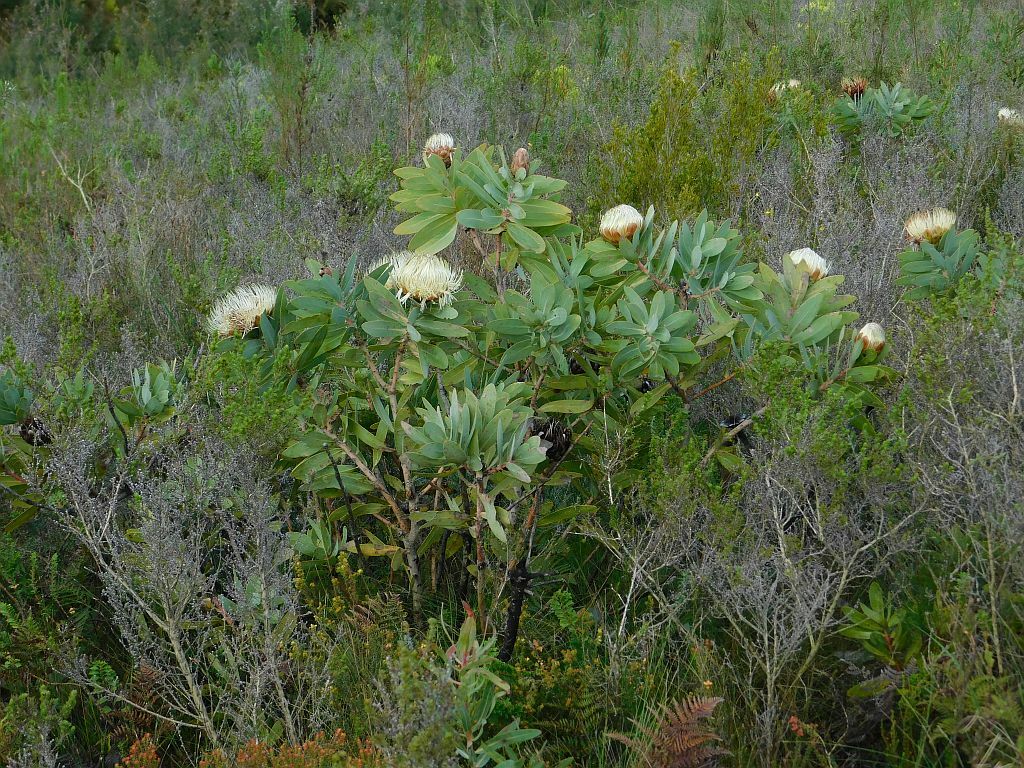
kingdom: Plantae
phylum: Tracheophyta
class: Magnoliopsida
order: Proteales
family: Proteaceae
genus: Protea
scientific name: Protea nitida
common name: Tree protea
